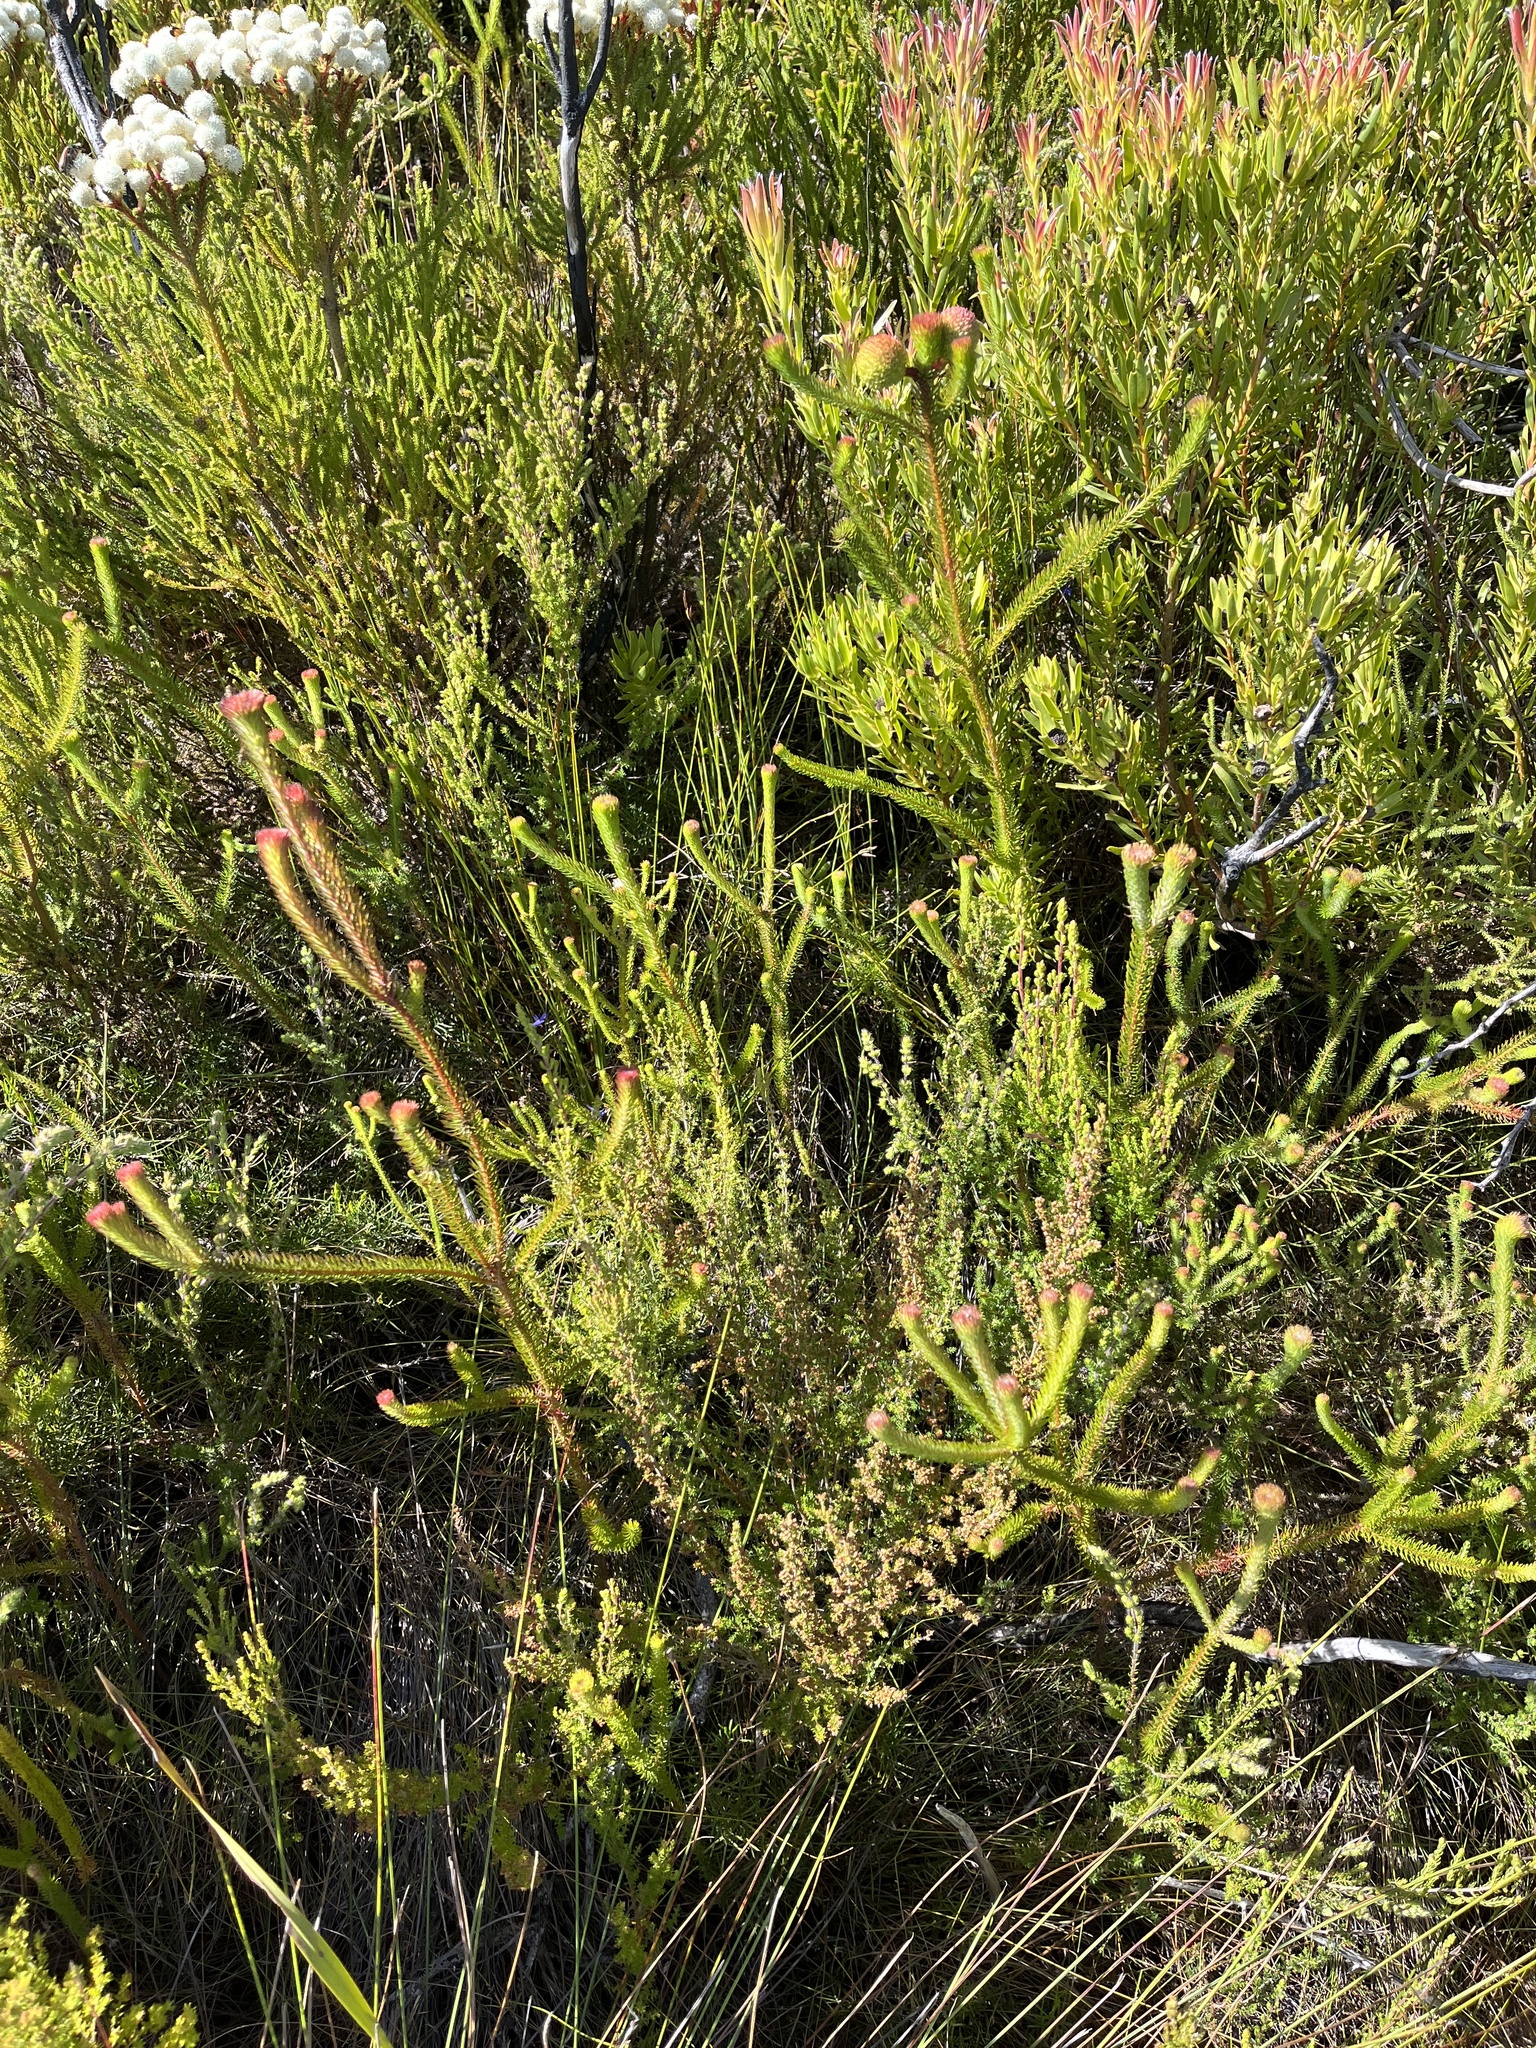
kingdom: Plantae
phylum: Tracheophyta
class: Magnoliopsida
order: Bruniales
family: Bruniaceae
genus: Berzelia
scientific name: Berzelia galpinii
